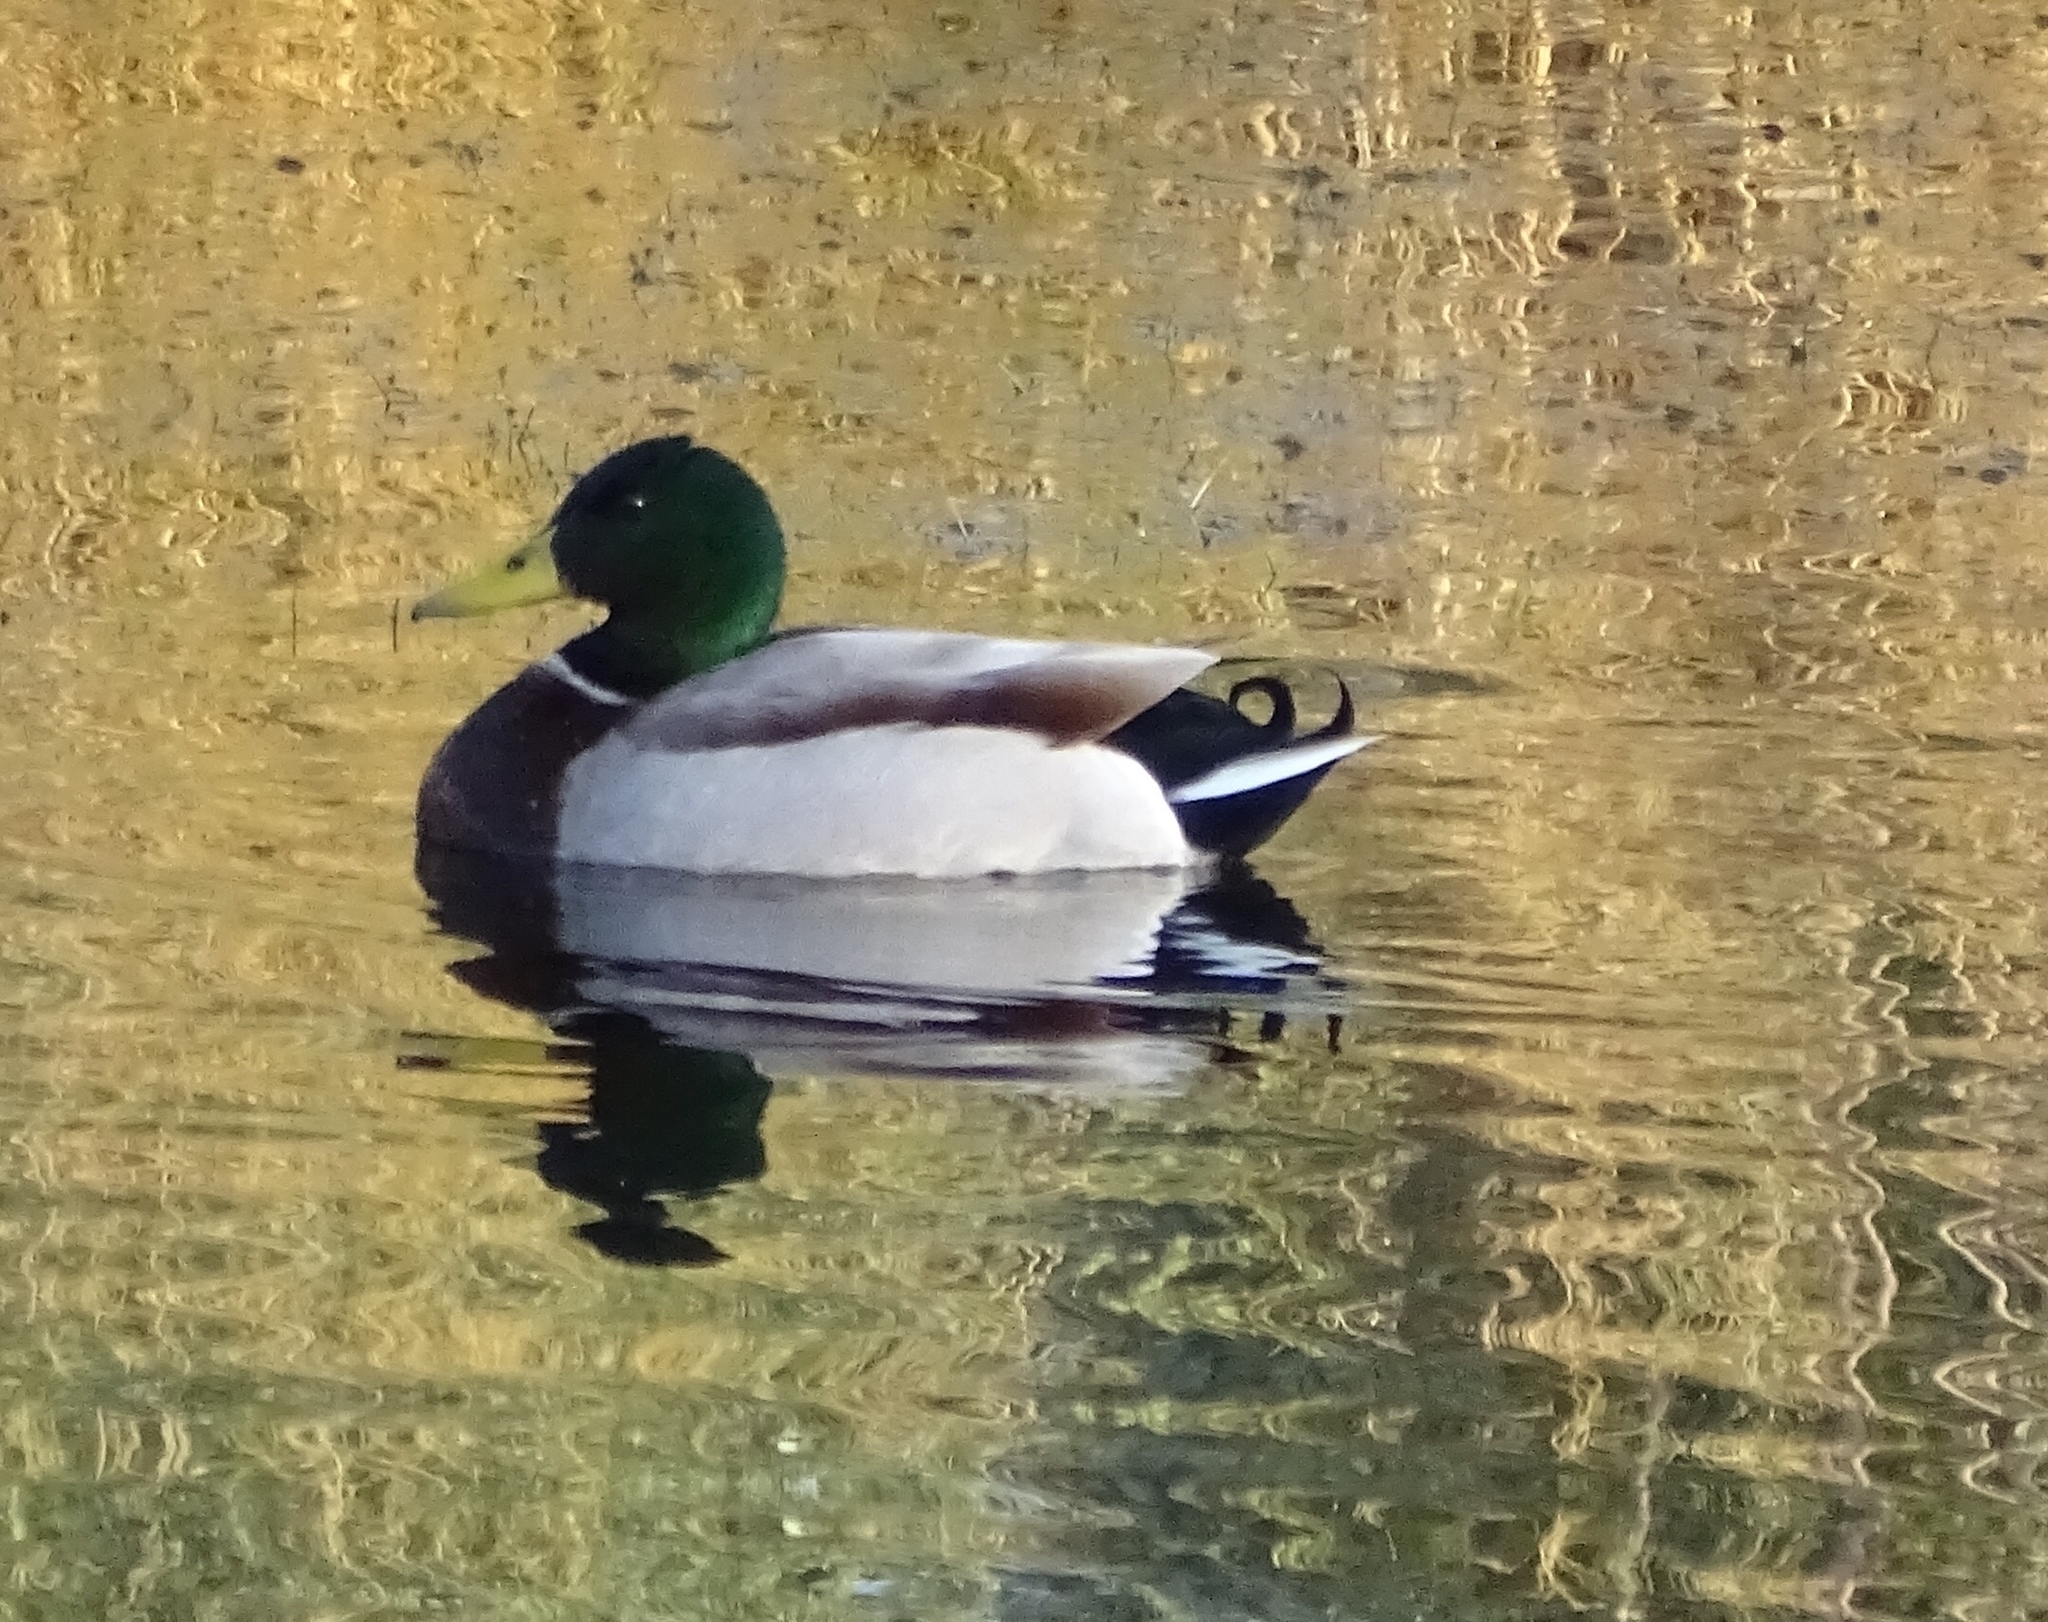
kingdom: Animalia
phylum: Chordata
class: Aves
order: Anseriformes
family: Anatidae
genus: Anas
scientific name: Anas platyrhynchos
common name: Mallard
